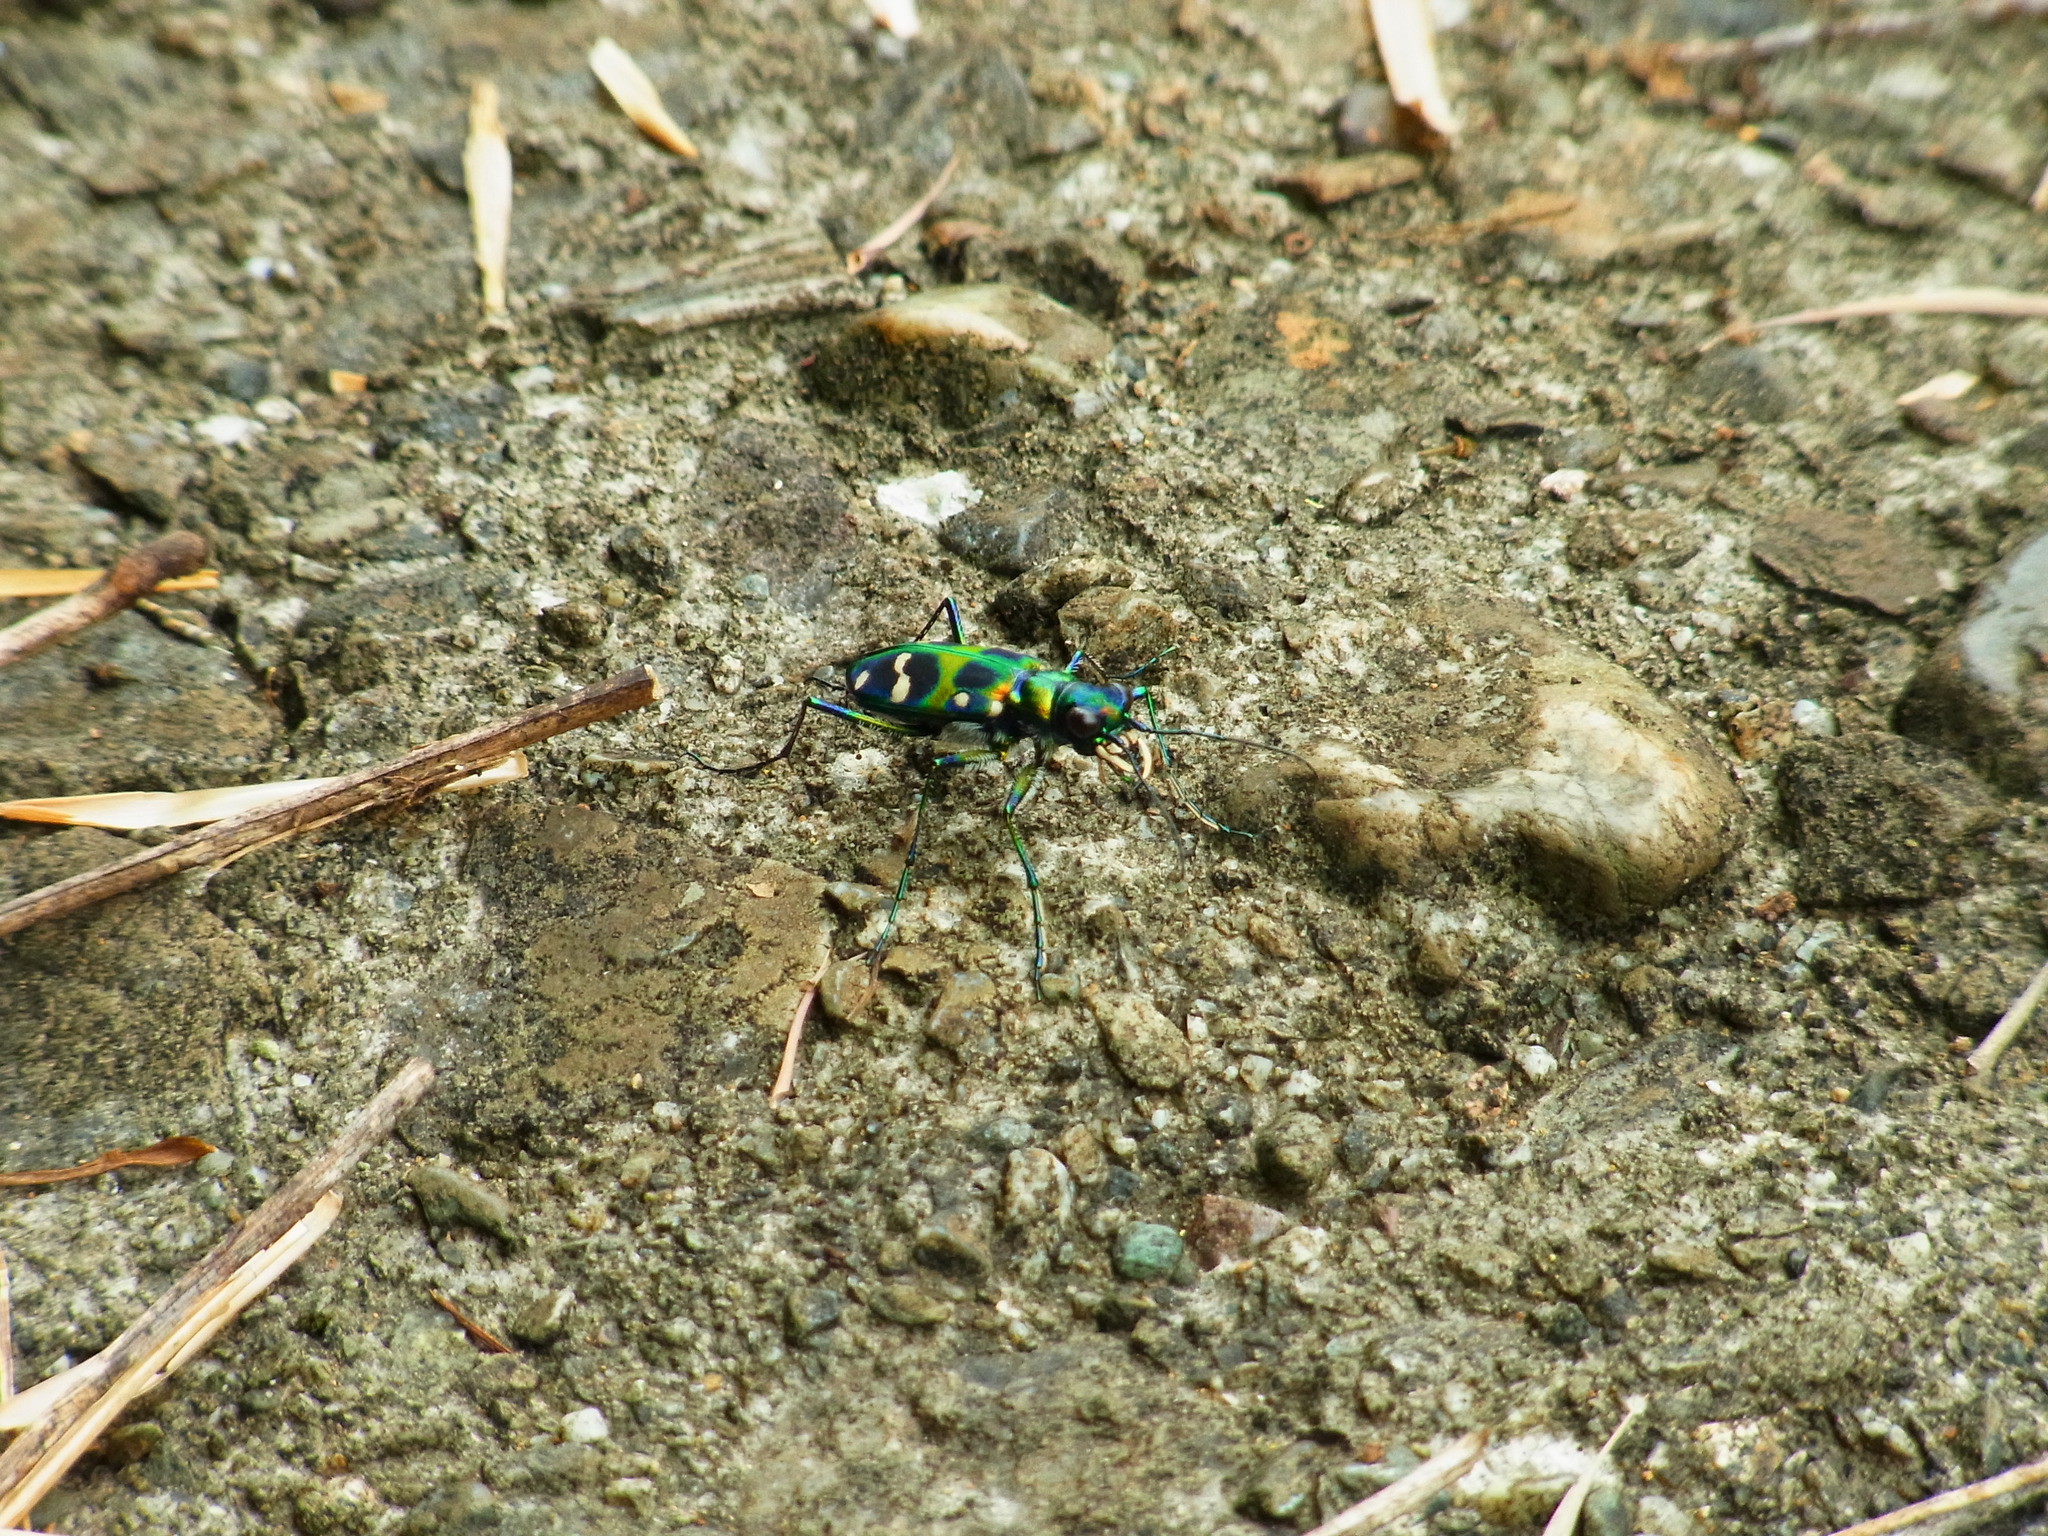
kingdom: Animalia
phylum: Arthropoda
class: Insecta
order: Coleoptera
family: Carabidae
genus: Cicindela
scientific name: Cicindela chinensis
